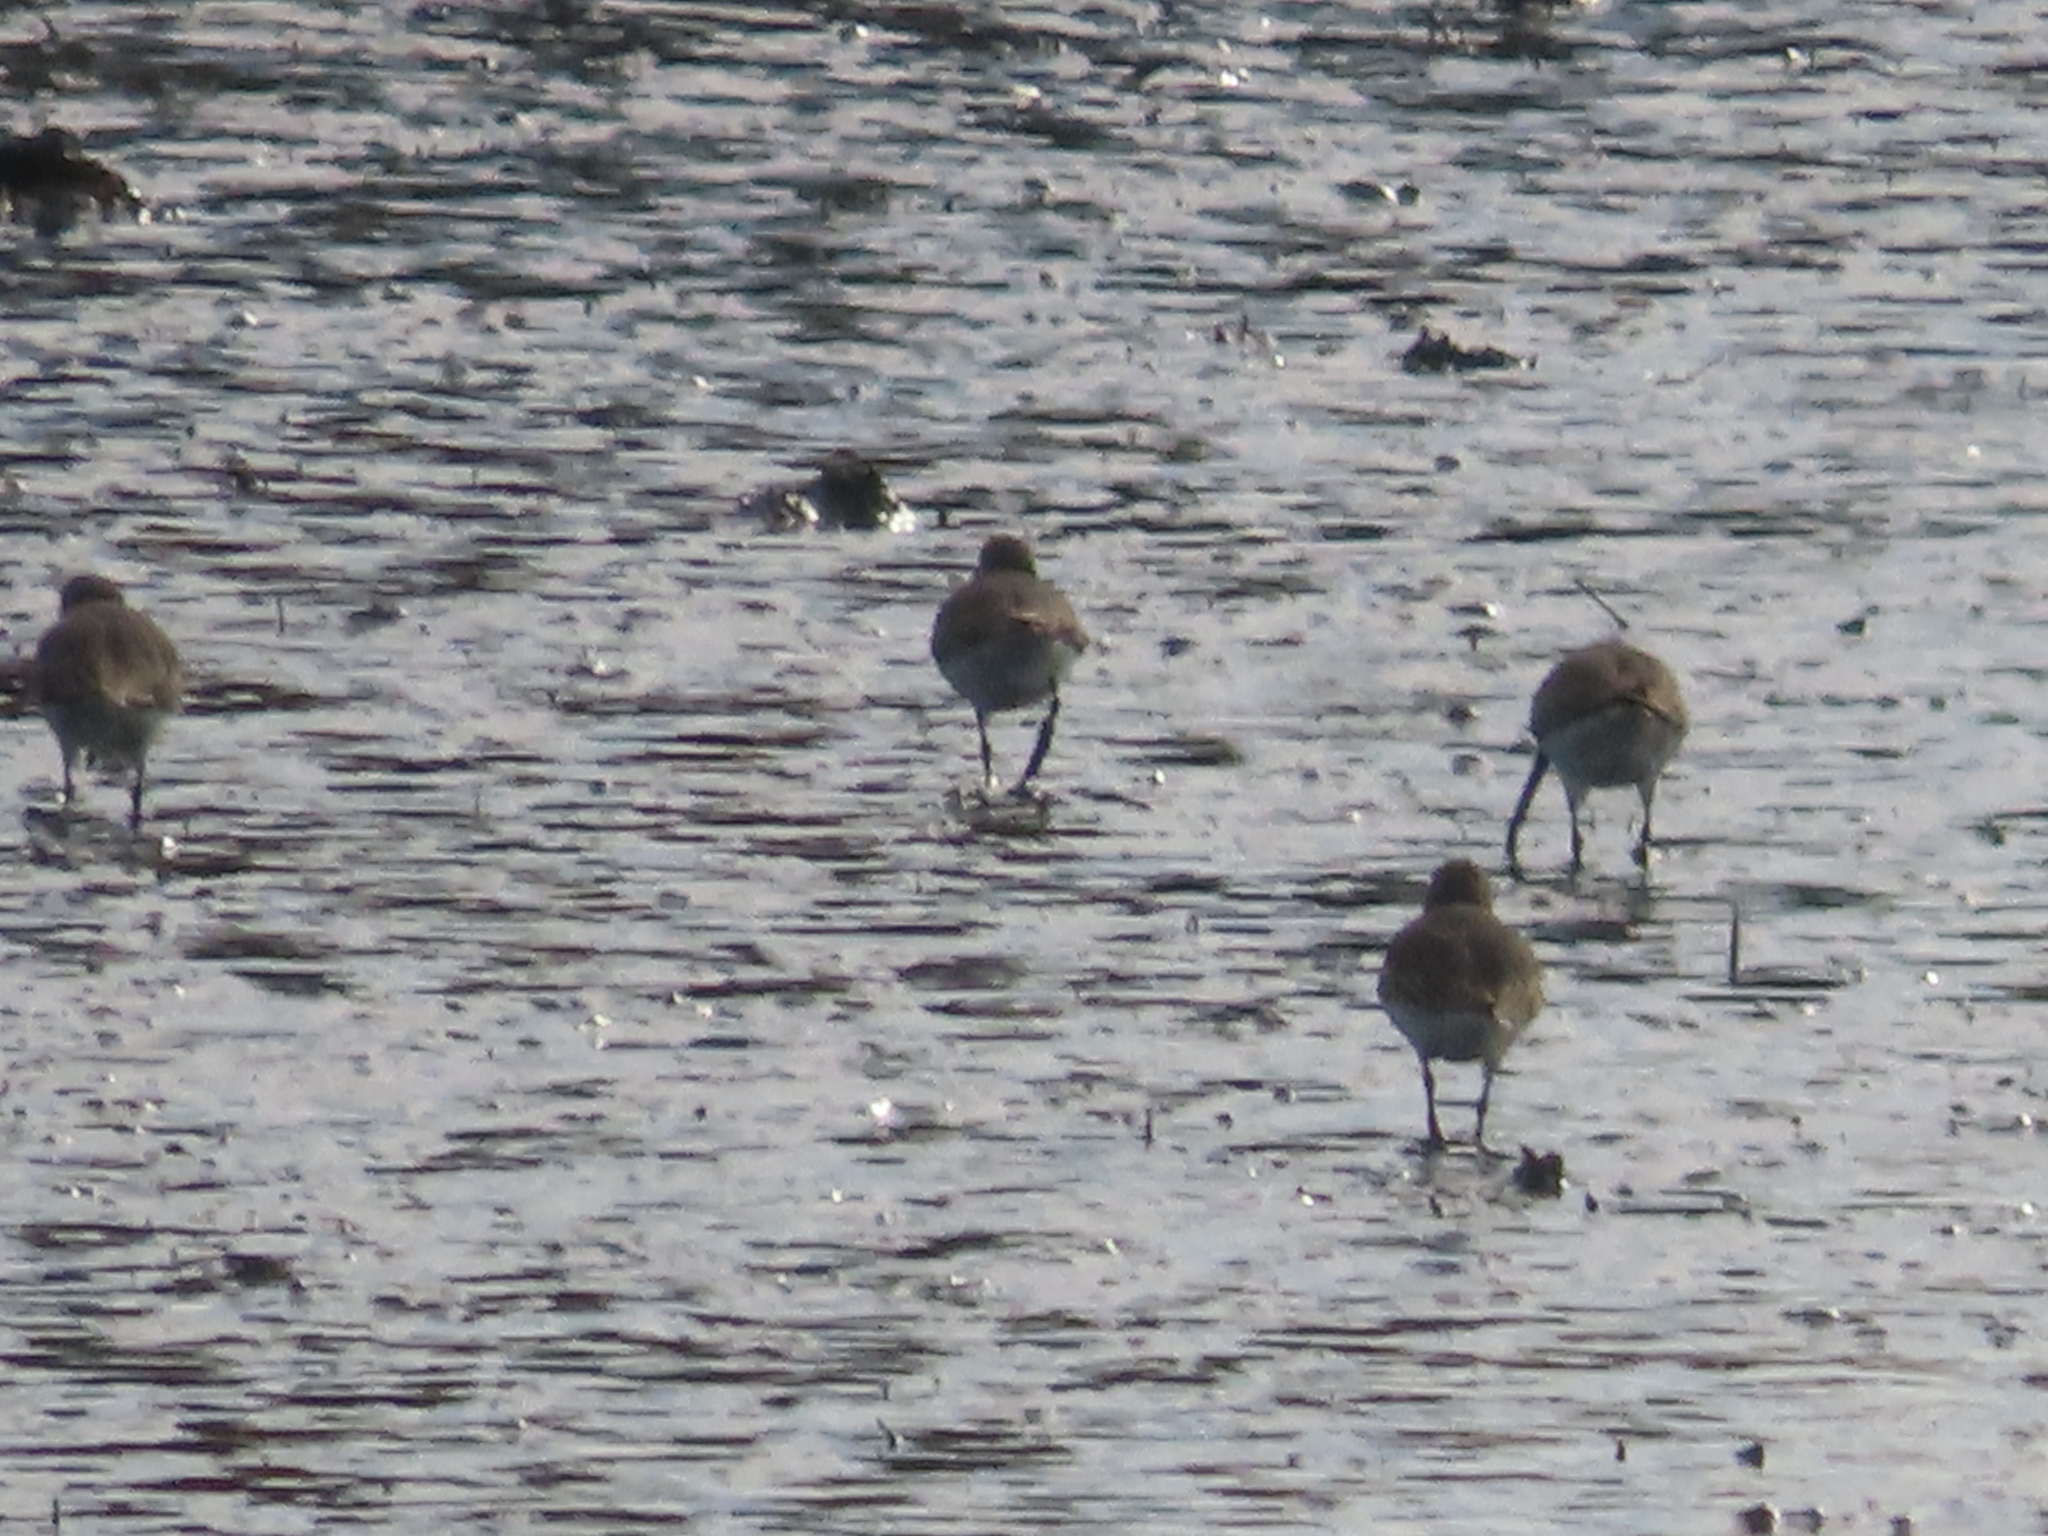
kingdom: Animalia
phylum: Chordata
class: Aves
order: Charadriiformes
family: Scolopacidae
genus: Calidris
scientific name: Calidris alpina
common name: Dunlin
